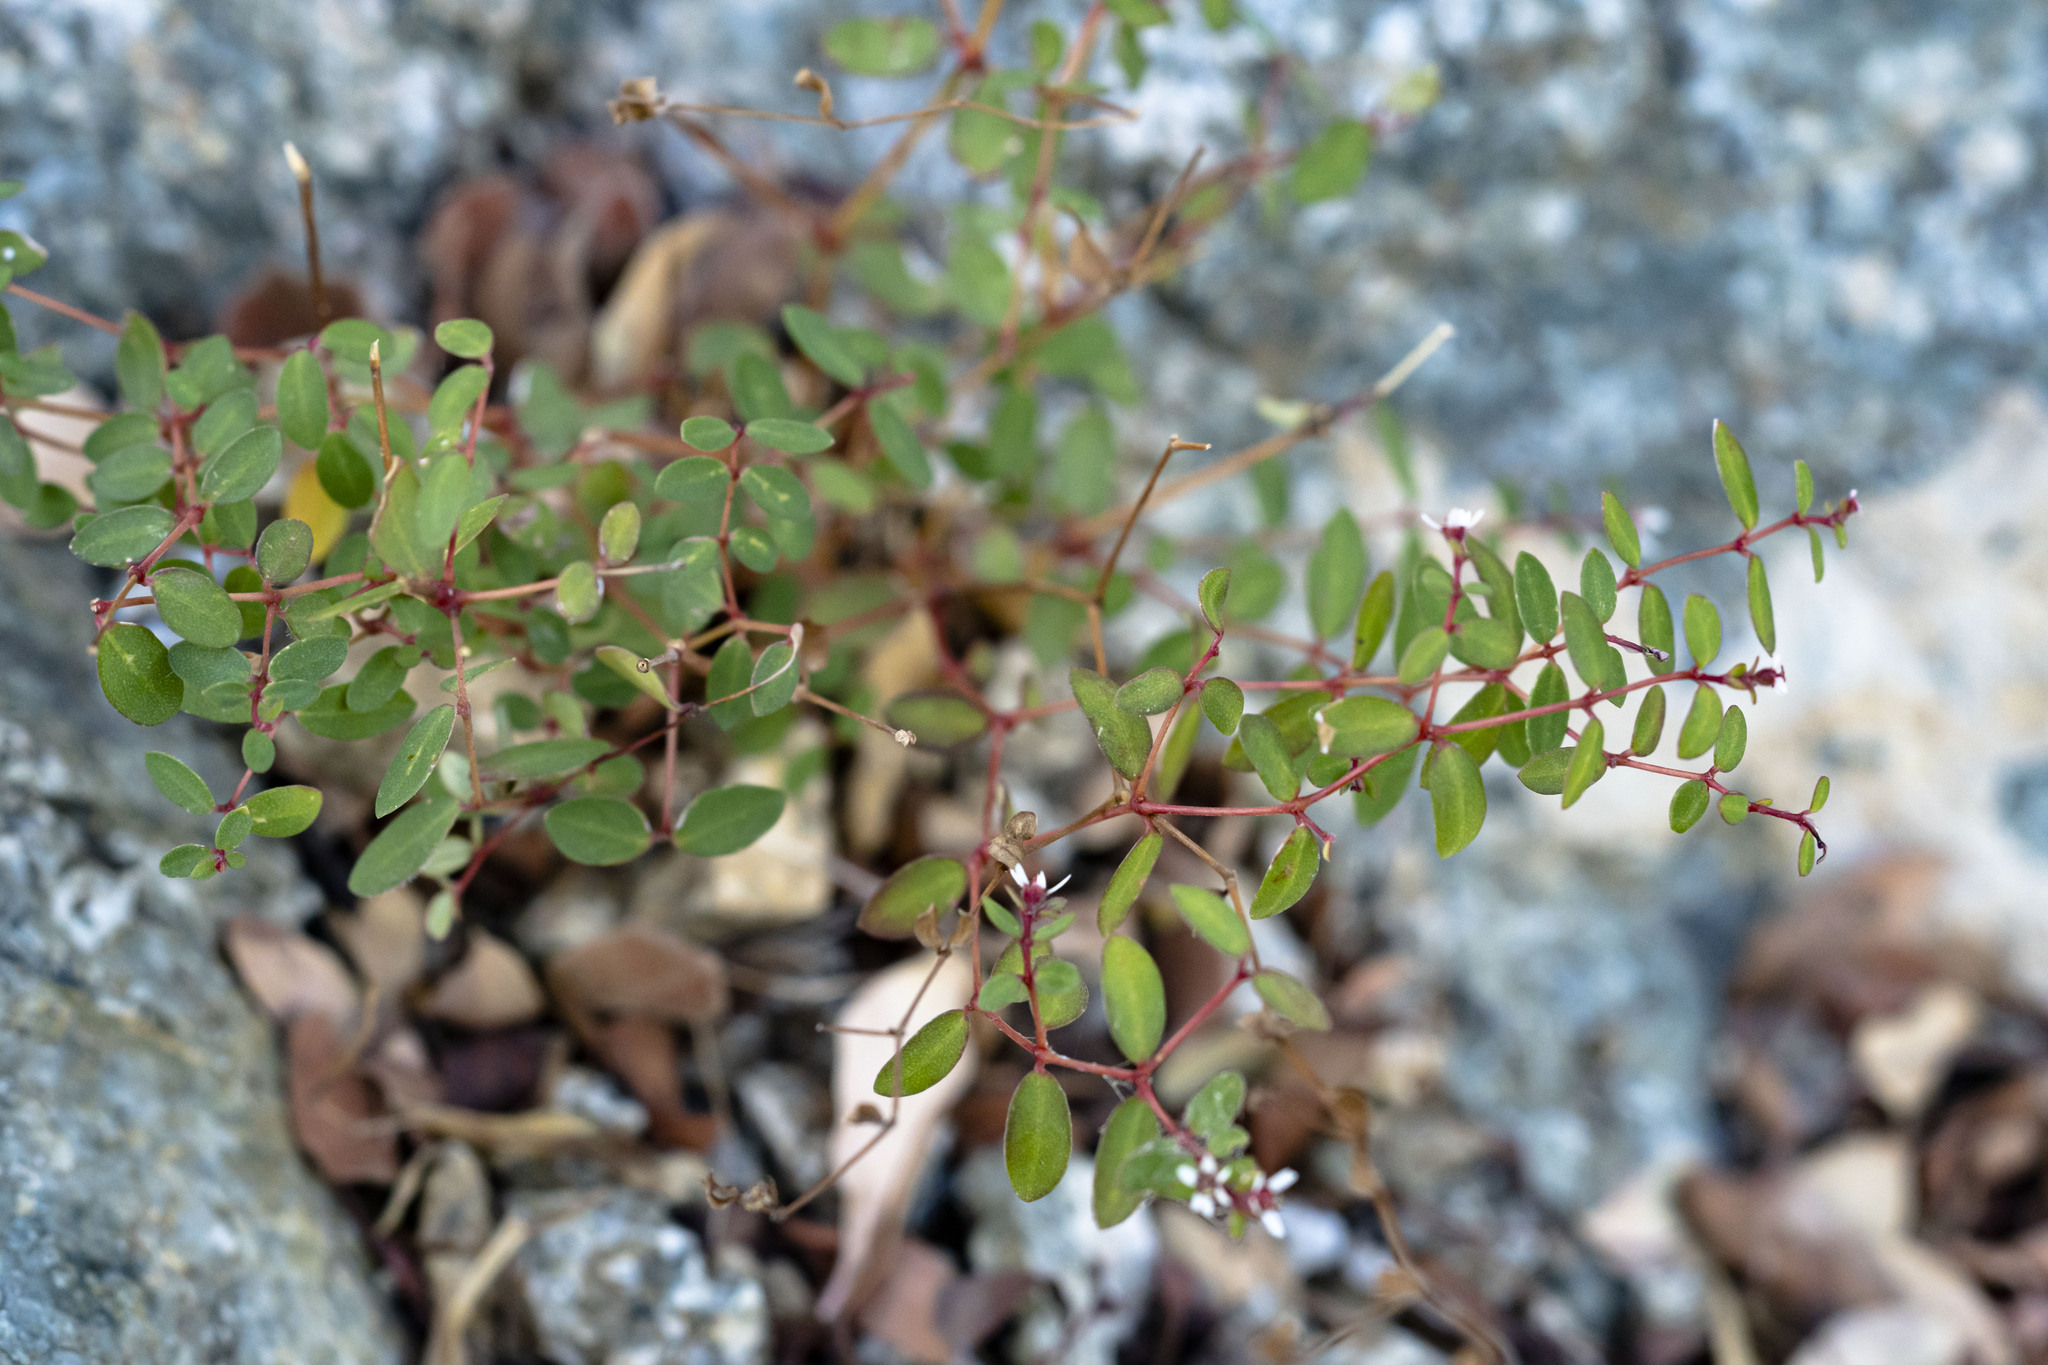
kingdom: Plantae
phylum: Tracheophyta
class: Magnoliopsida
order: Malpighiales
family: Euphorbiaceae
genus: Euphorbia
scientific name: Euphorbia cerralvensis
